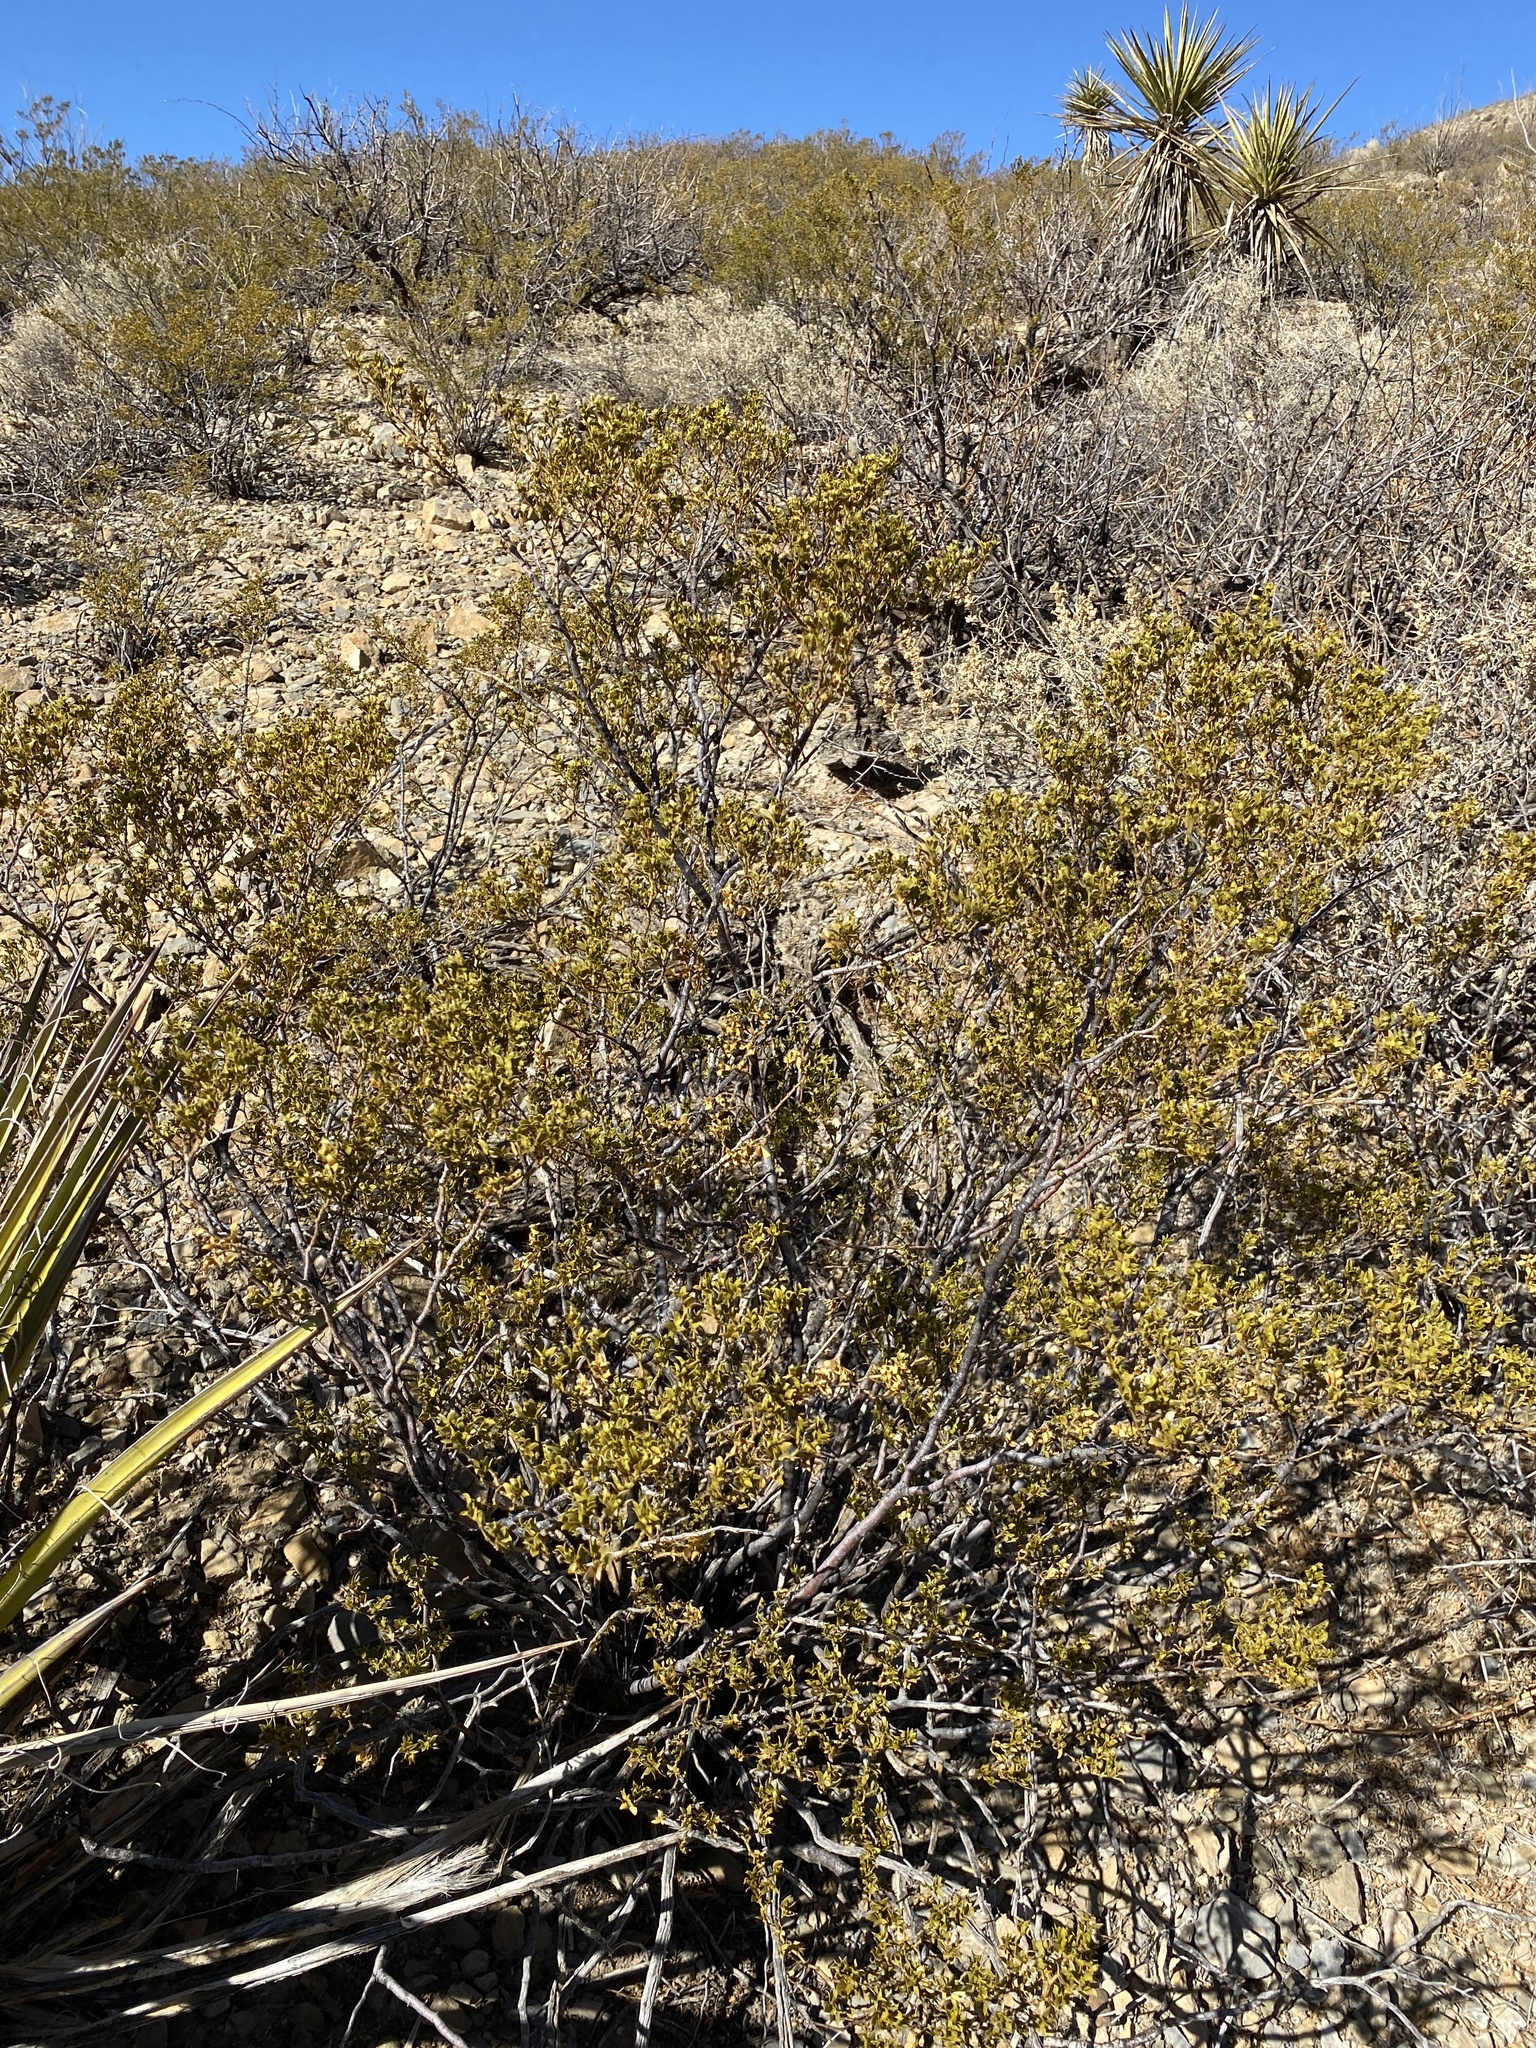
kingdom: Plantae
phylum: Tracheophyta
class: Magnoliopsida
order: Zygophyllales
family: Zygophyllaceae
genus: Larrea
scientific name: Larrea tridentata
